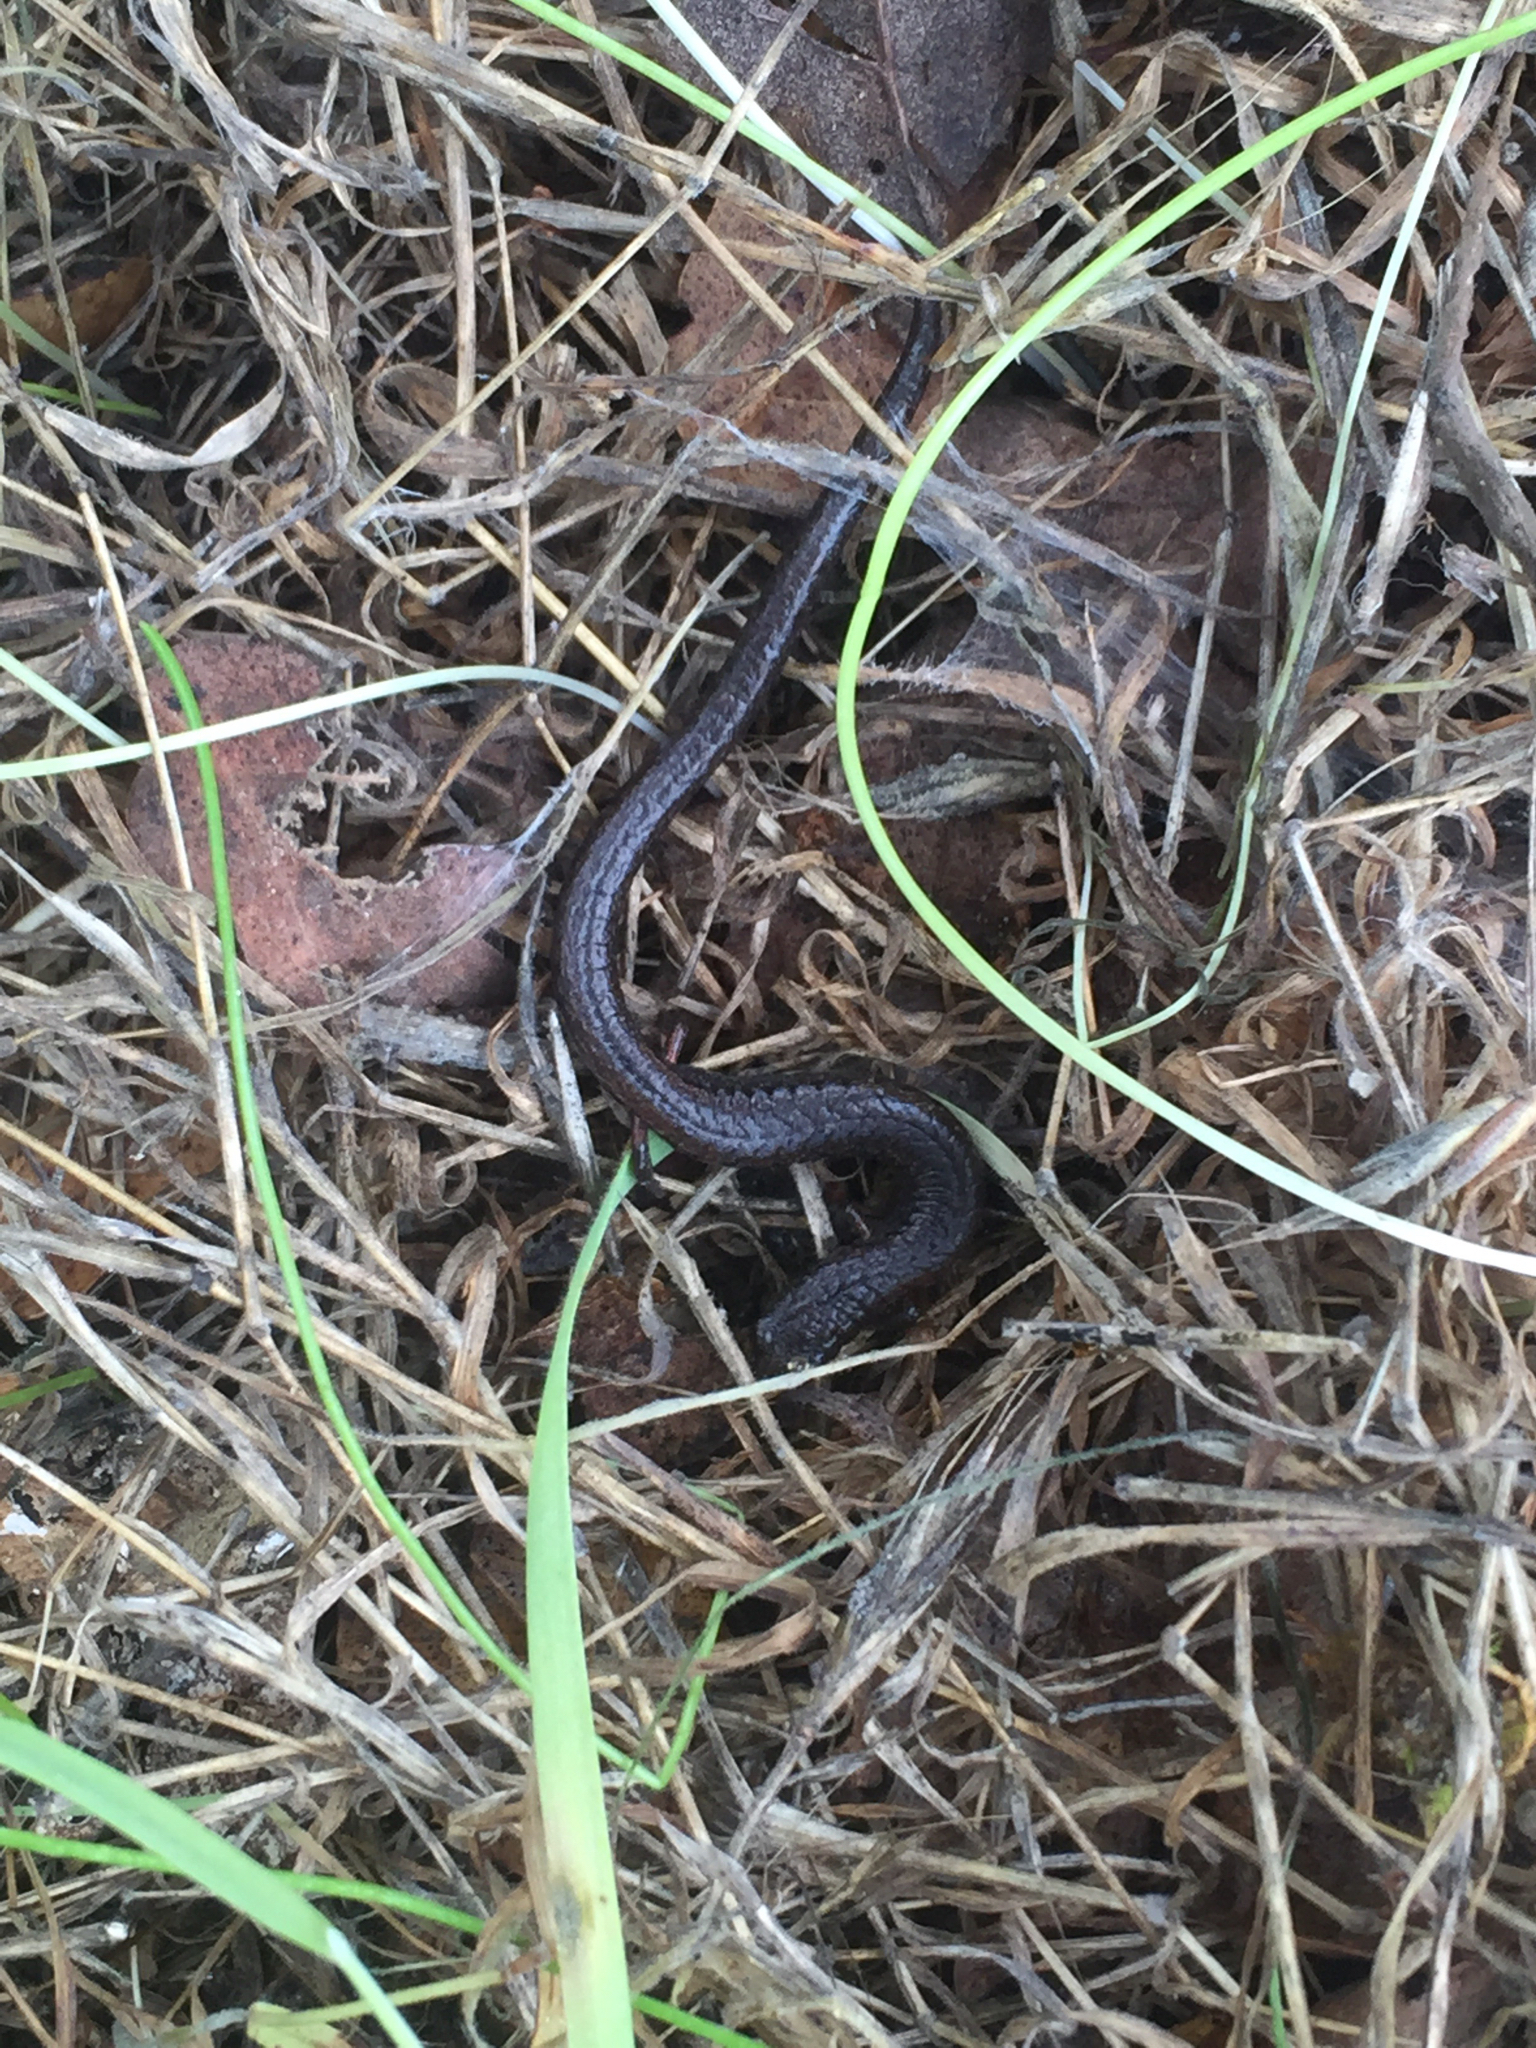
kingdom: Animalia
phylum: Chordata
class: Amphibia
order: Caudata
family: Plethodontidae
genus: Batrachoseps
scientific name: Batrachoseps attenuatus
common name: California slender salamander
